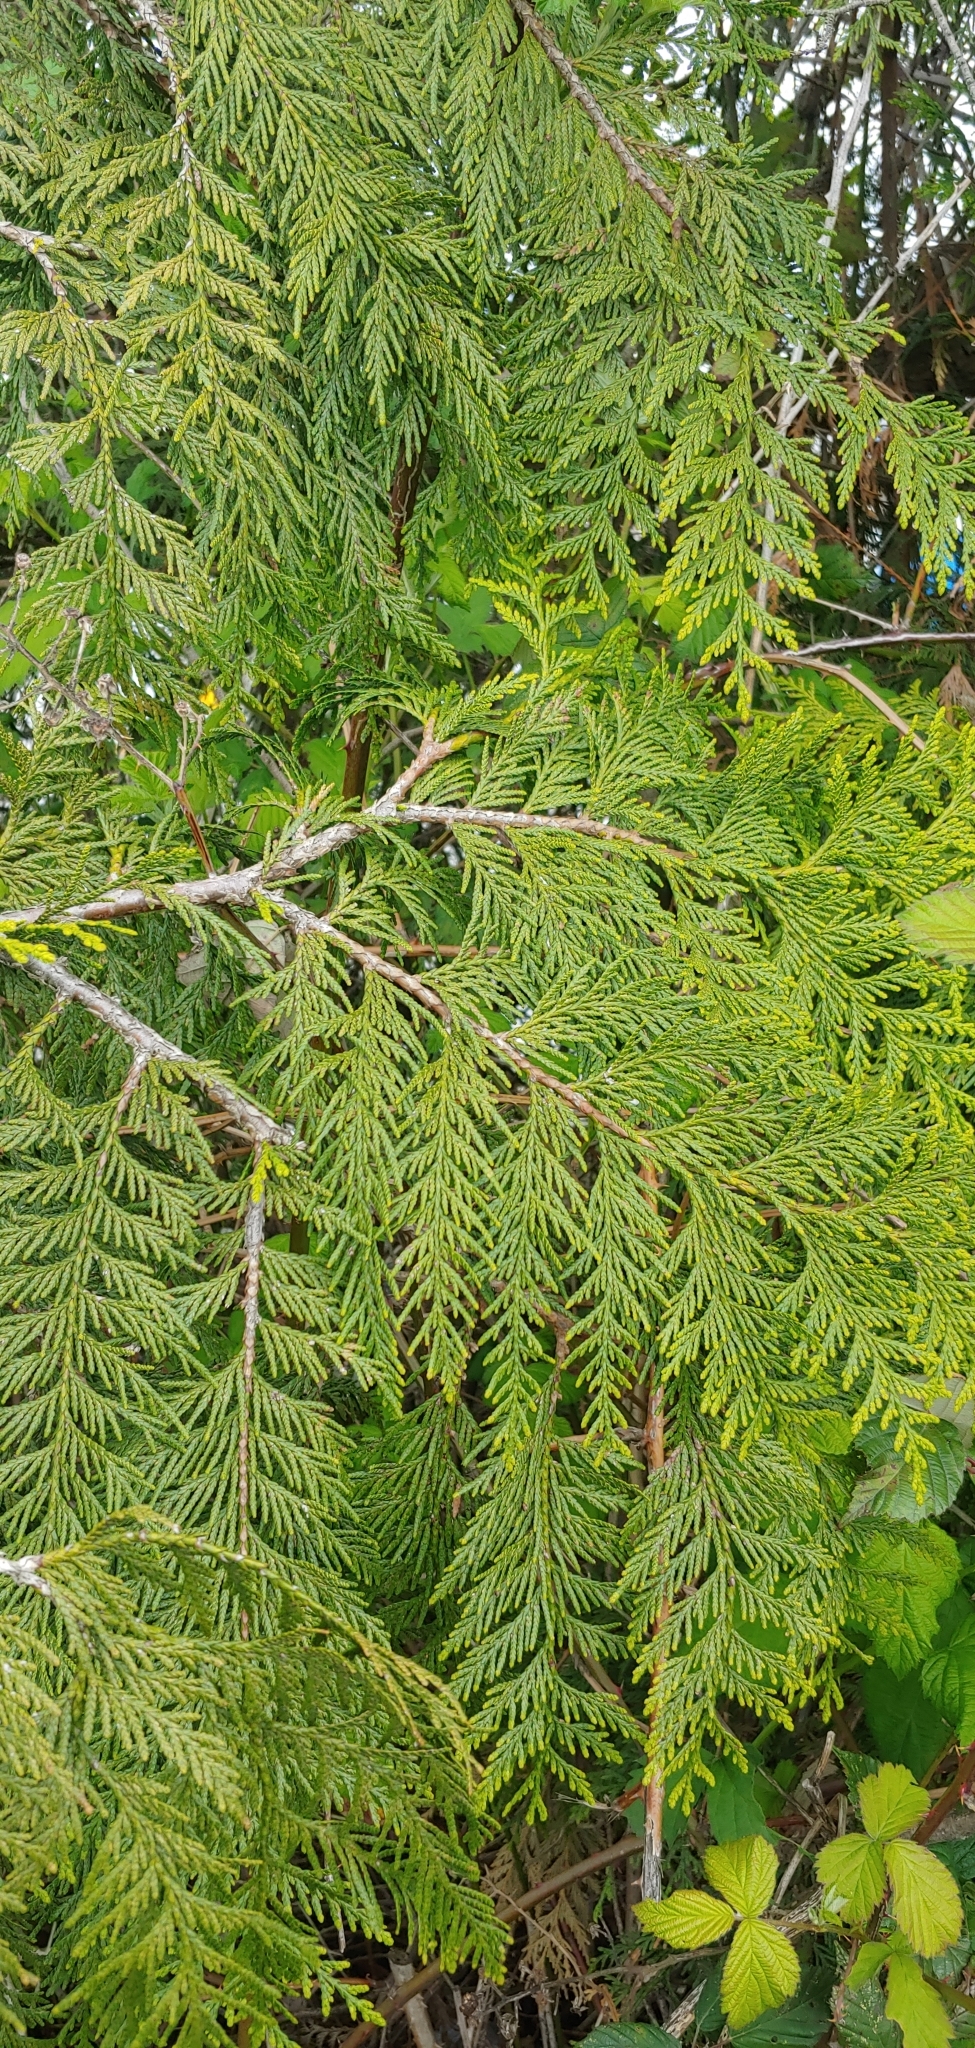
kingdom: Plantae
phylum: Tracheophyta
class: Pinopsida
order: Pinales
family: Cupressaceae
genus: Thuja
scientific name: Thuja plicata
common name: Western red-cedar
